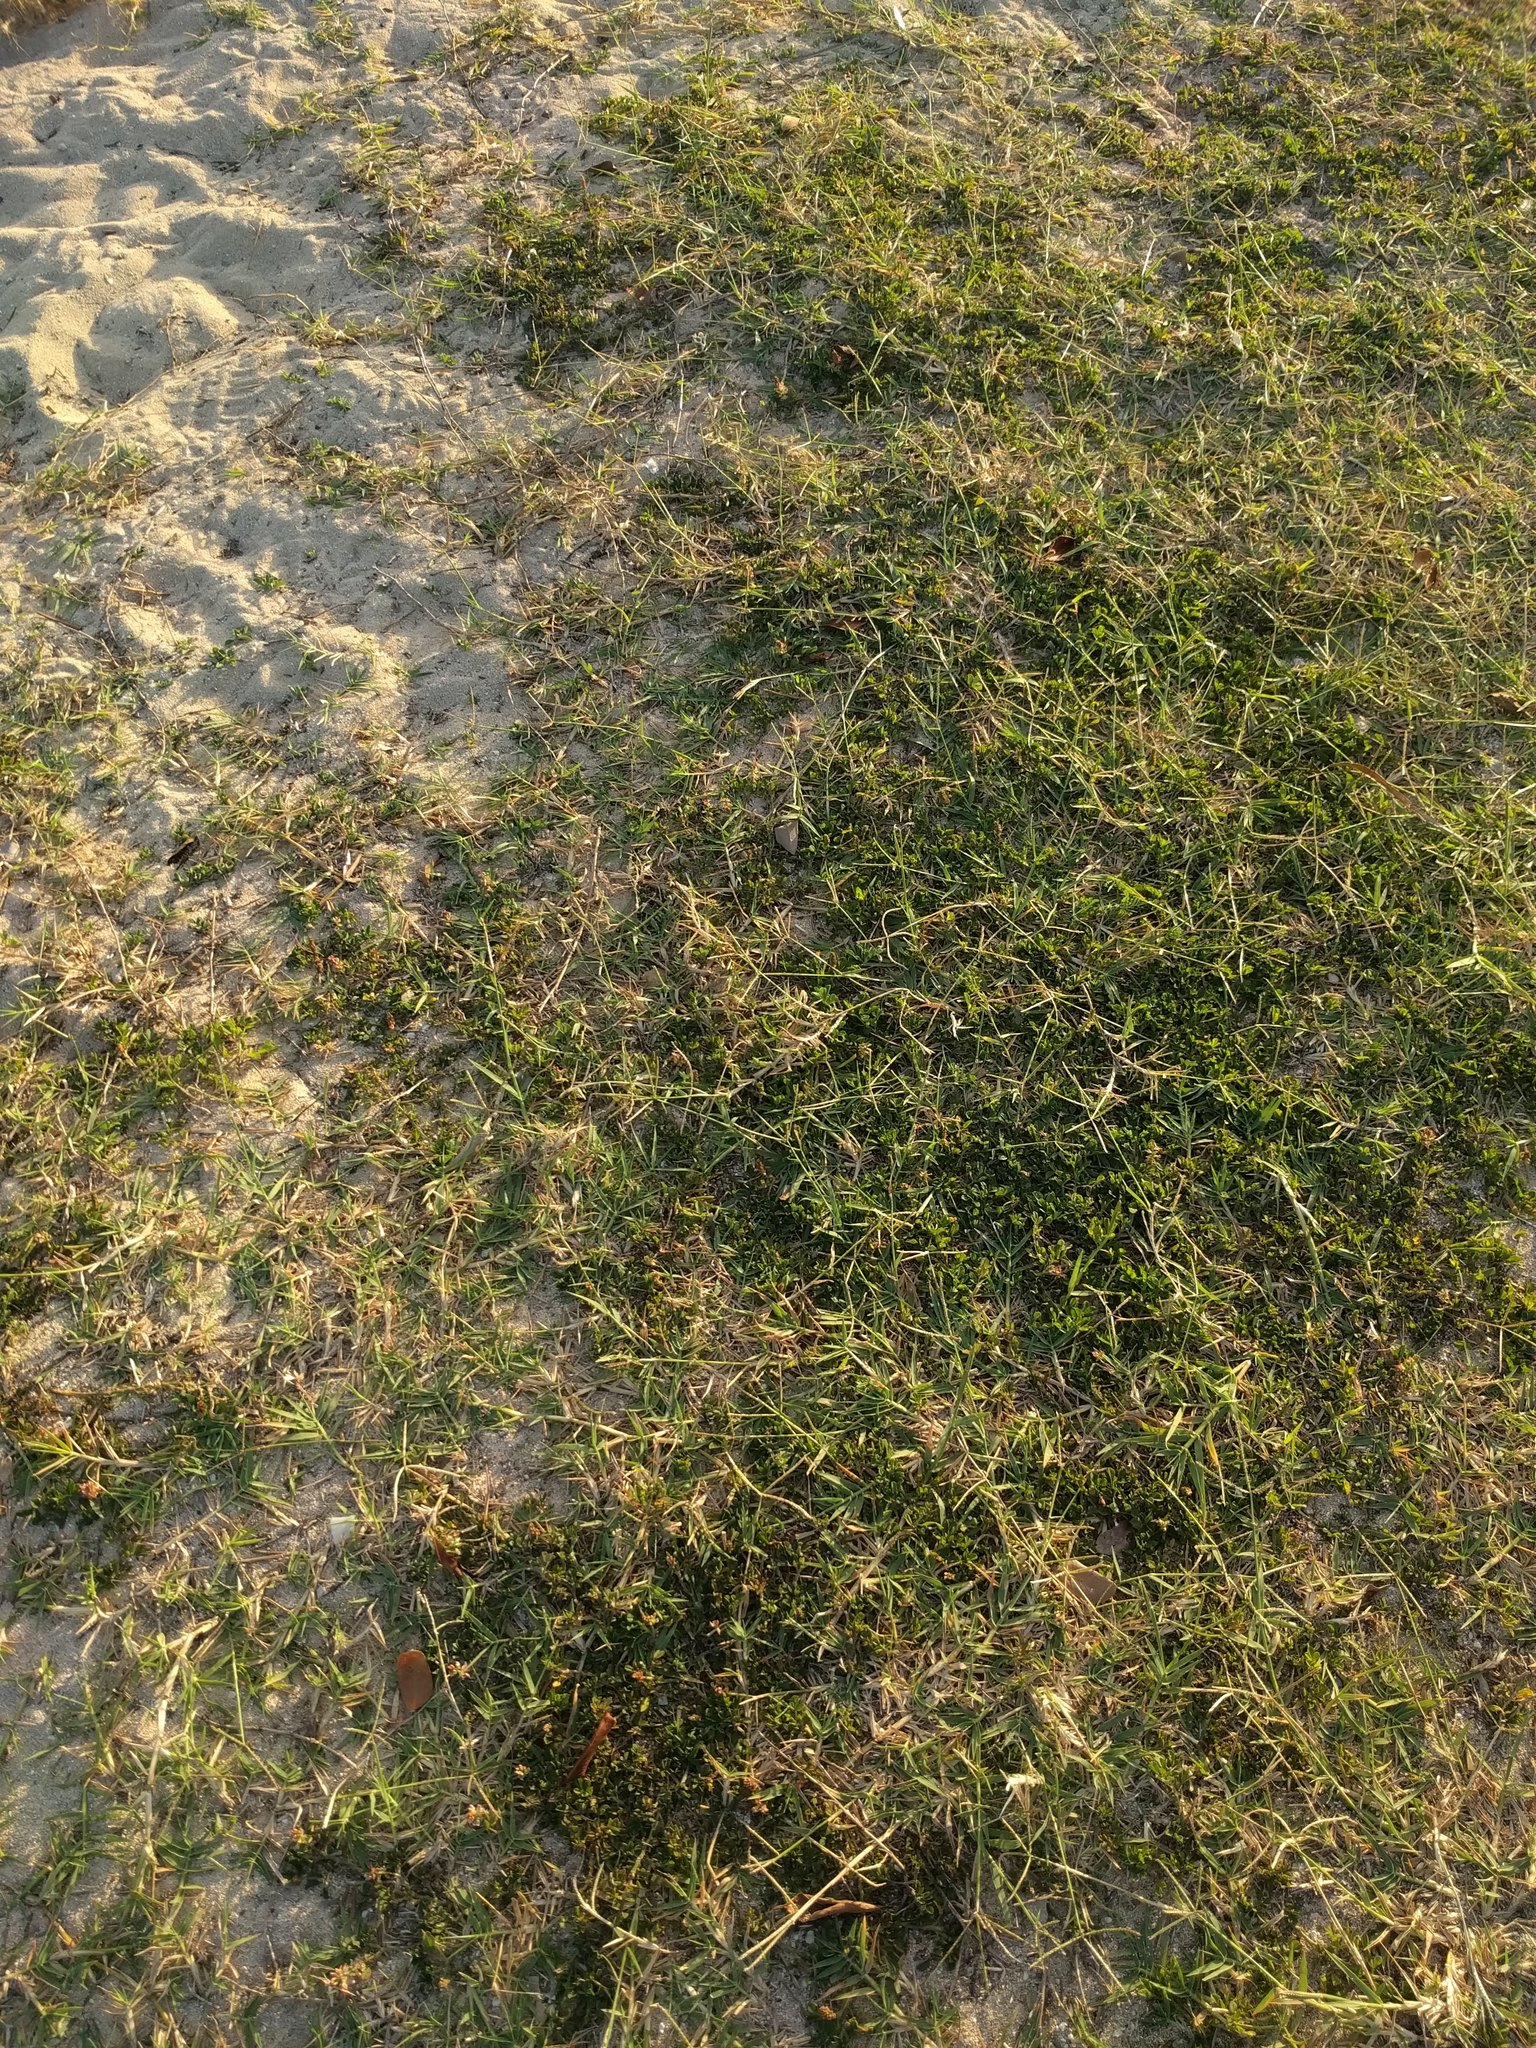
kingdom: Plantae
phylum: Tracheophyta
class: Liliopsida
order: Poales
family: Poaceae
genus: Cynodon
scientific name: Cynodon dactylon
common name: Bermuda grass
